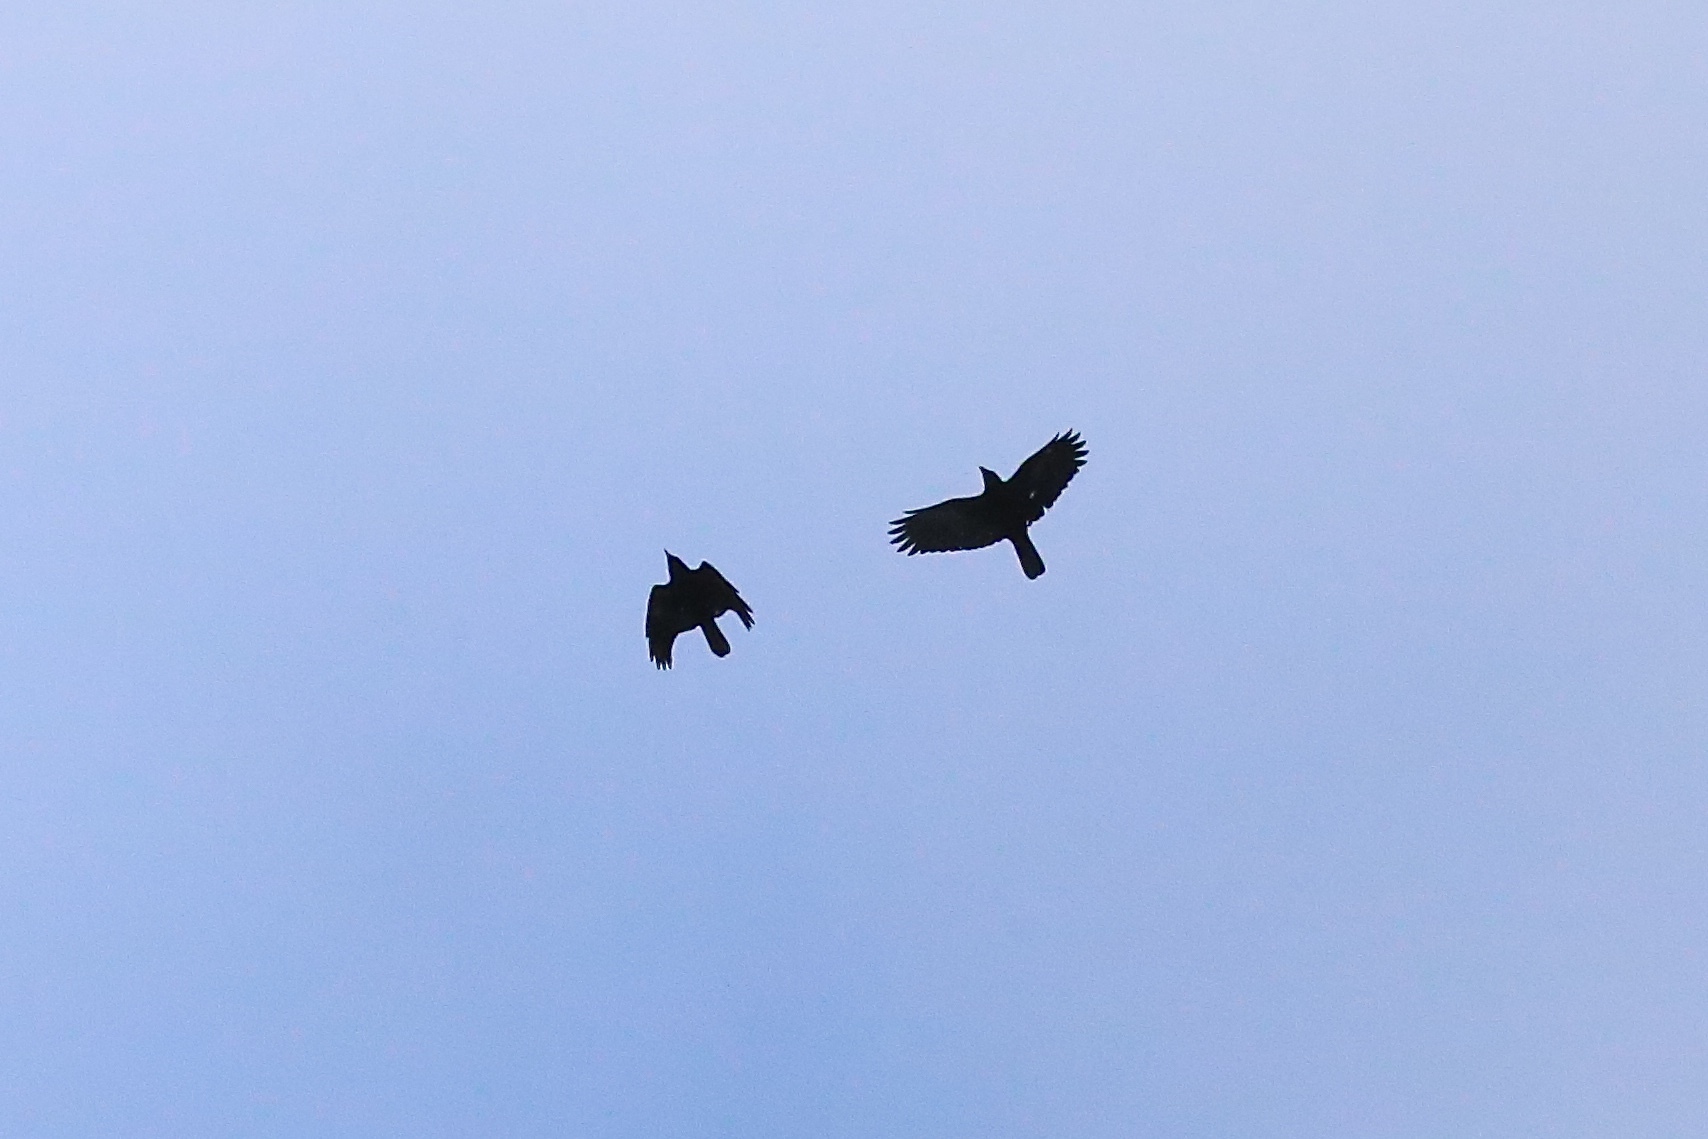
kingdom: Animalia
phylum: Chordata
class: Aves
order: Passeriformes
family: Corvidae
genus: Corvus
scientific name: Corvus brachyrhynchos
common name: American crow
